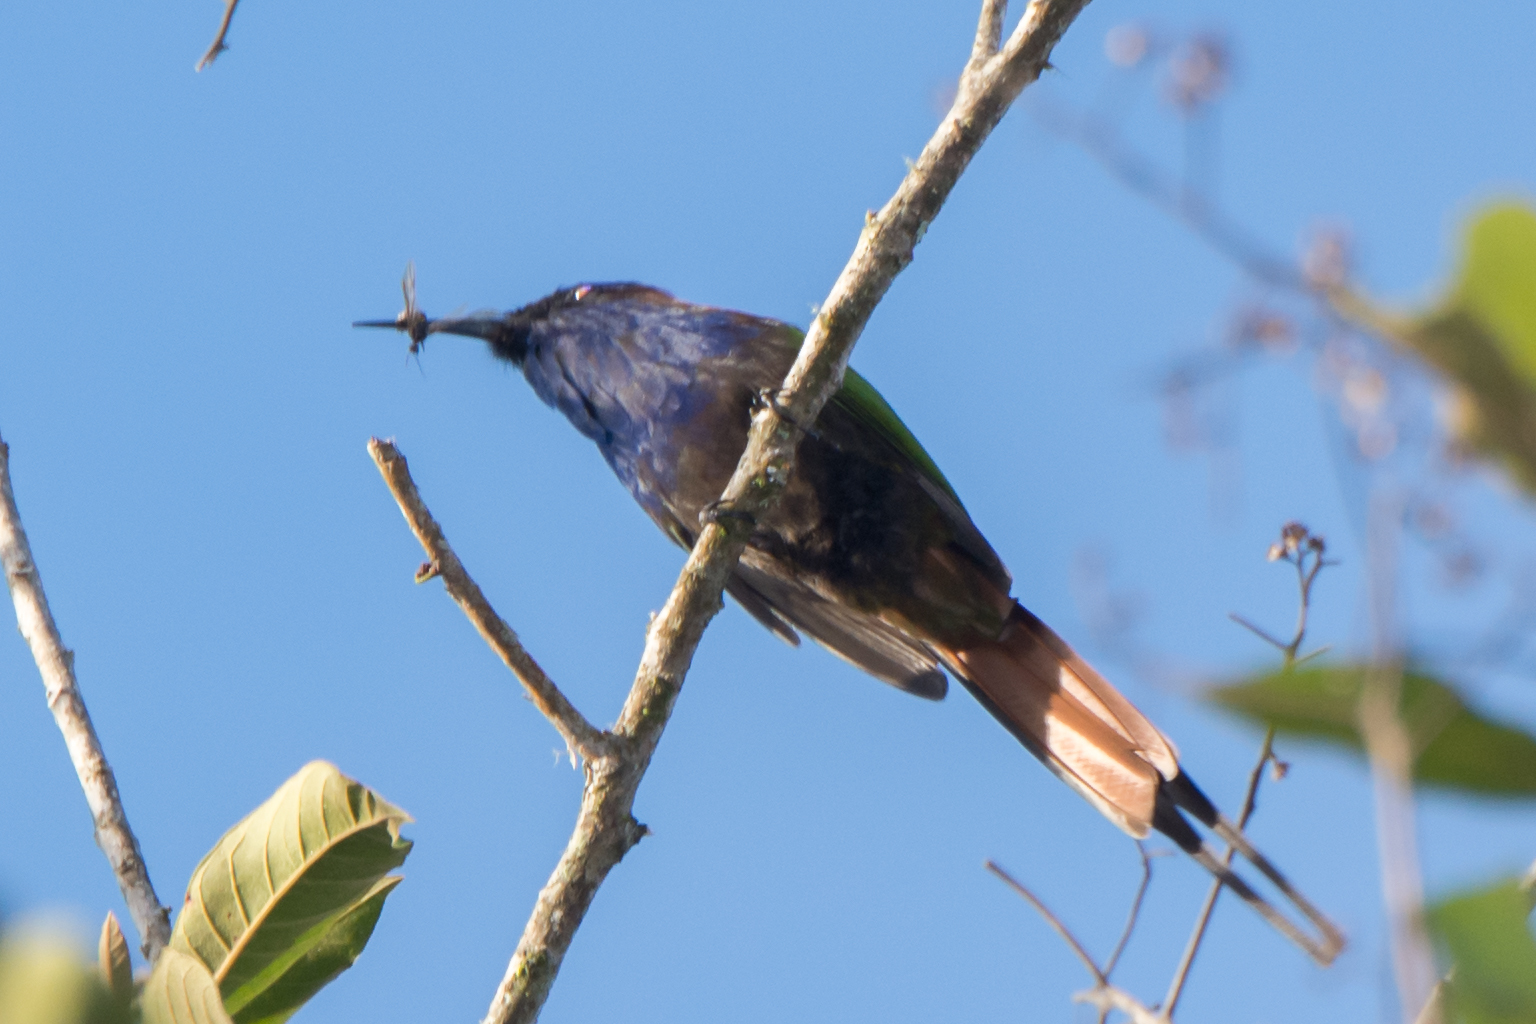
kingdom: Animalia
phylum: Chordata
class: Aves
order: Coraciiformes
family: Meropidae
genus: Meropogon
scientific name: Meropogon forsteni
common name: Purple-bearded bee-eater
